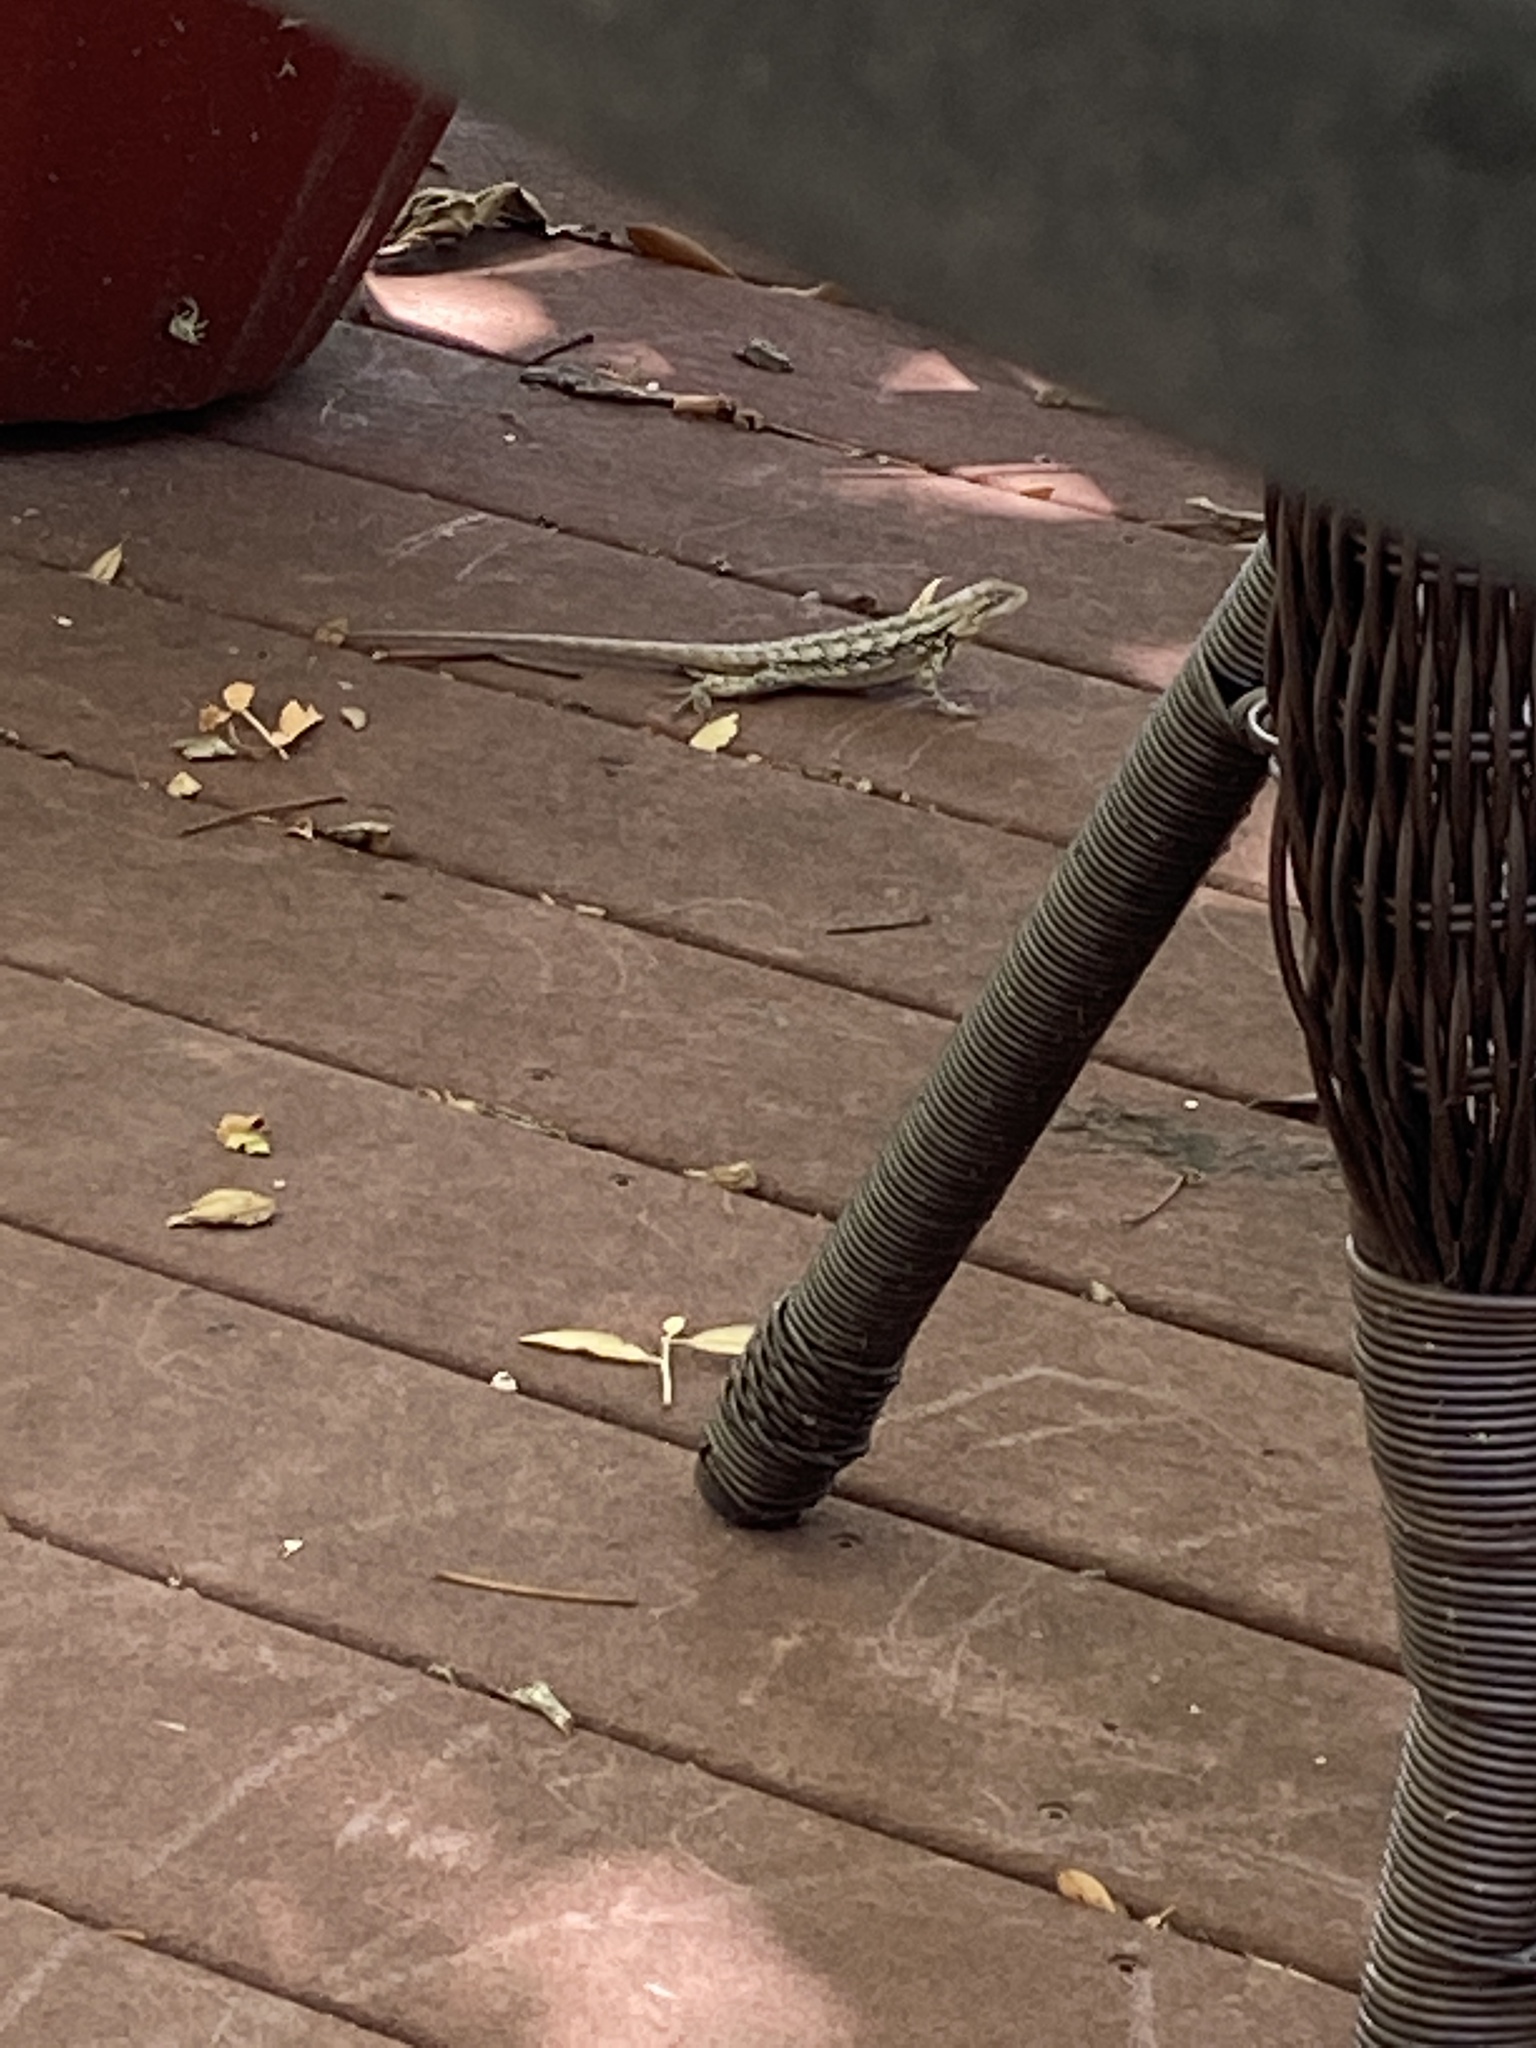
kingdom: Animalia
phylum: Chordata
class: Squamata
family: Phrynosomatidae
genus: Sceloporus
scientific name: Sceloporus olivaceus
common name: Texas spiny lizard
